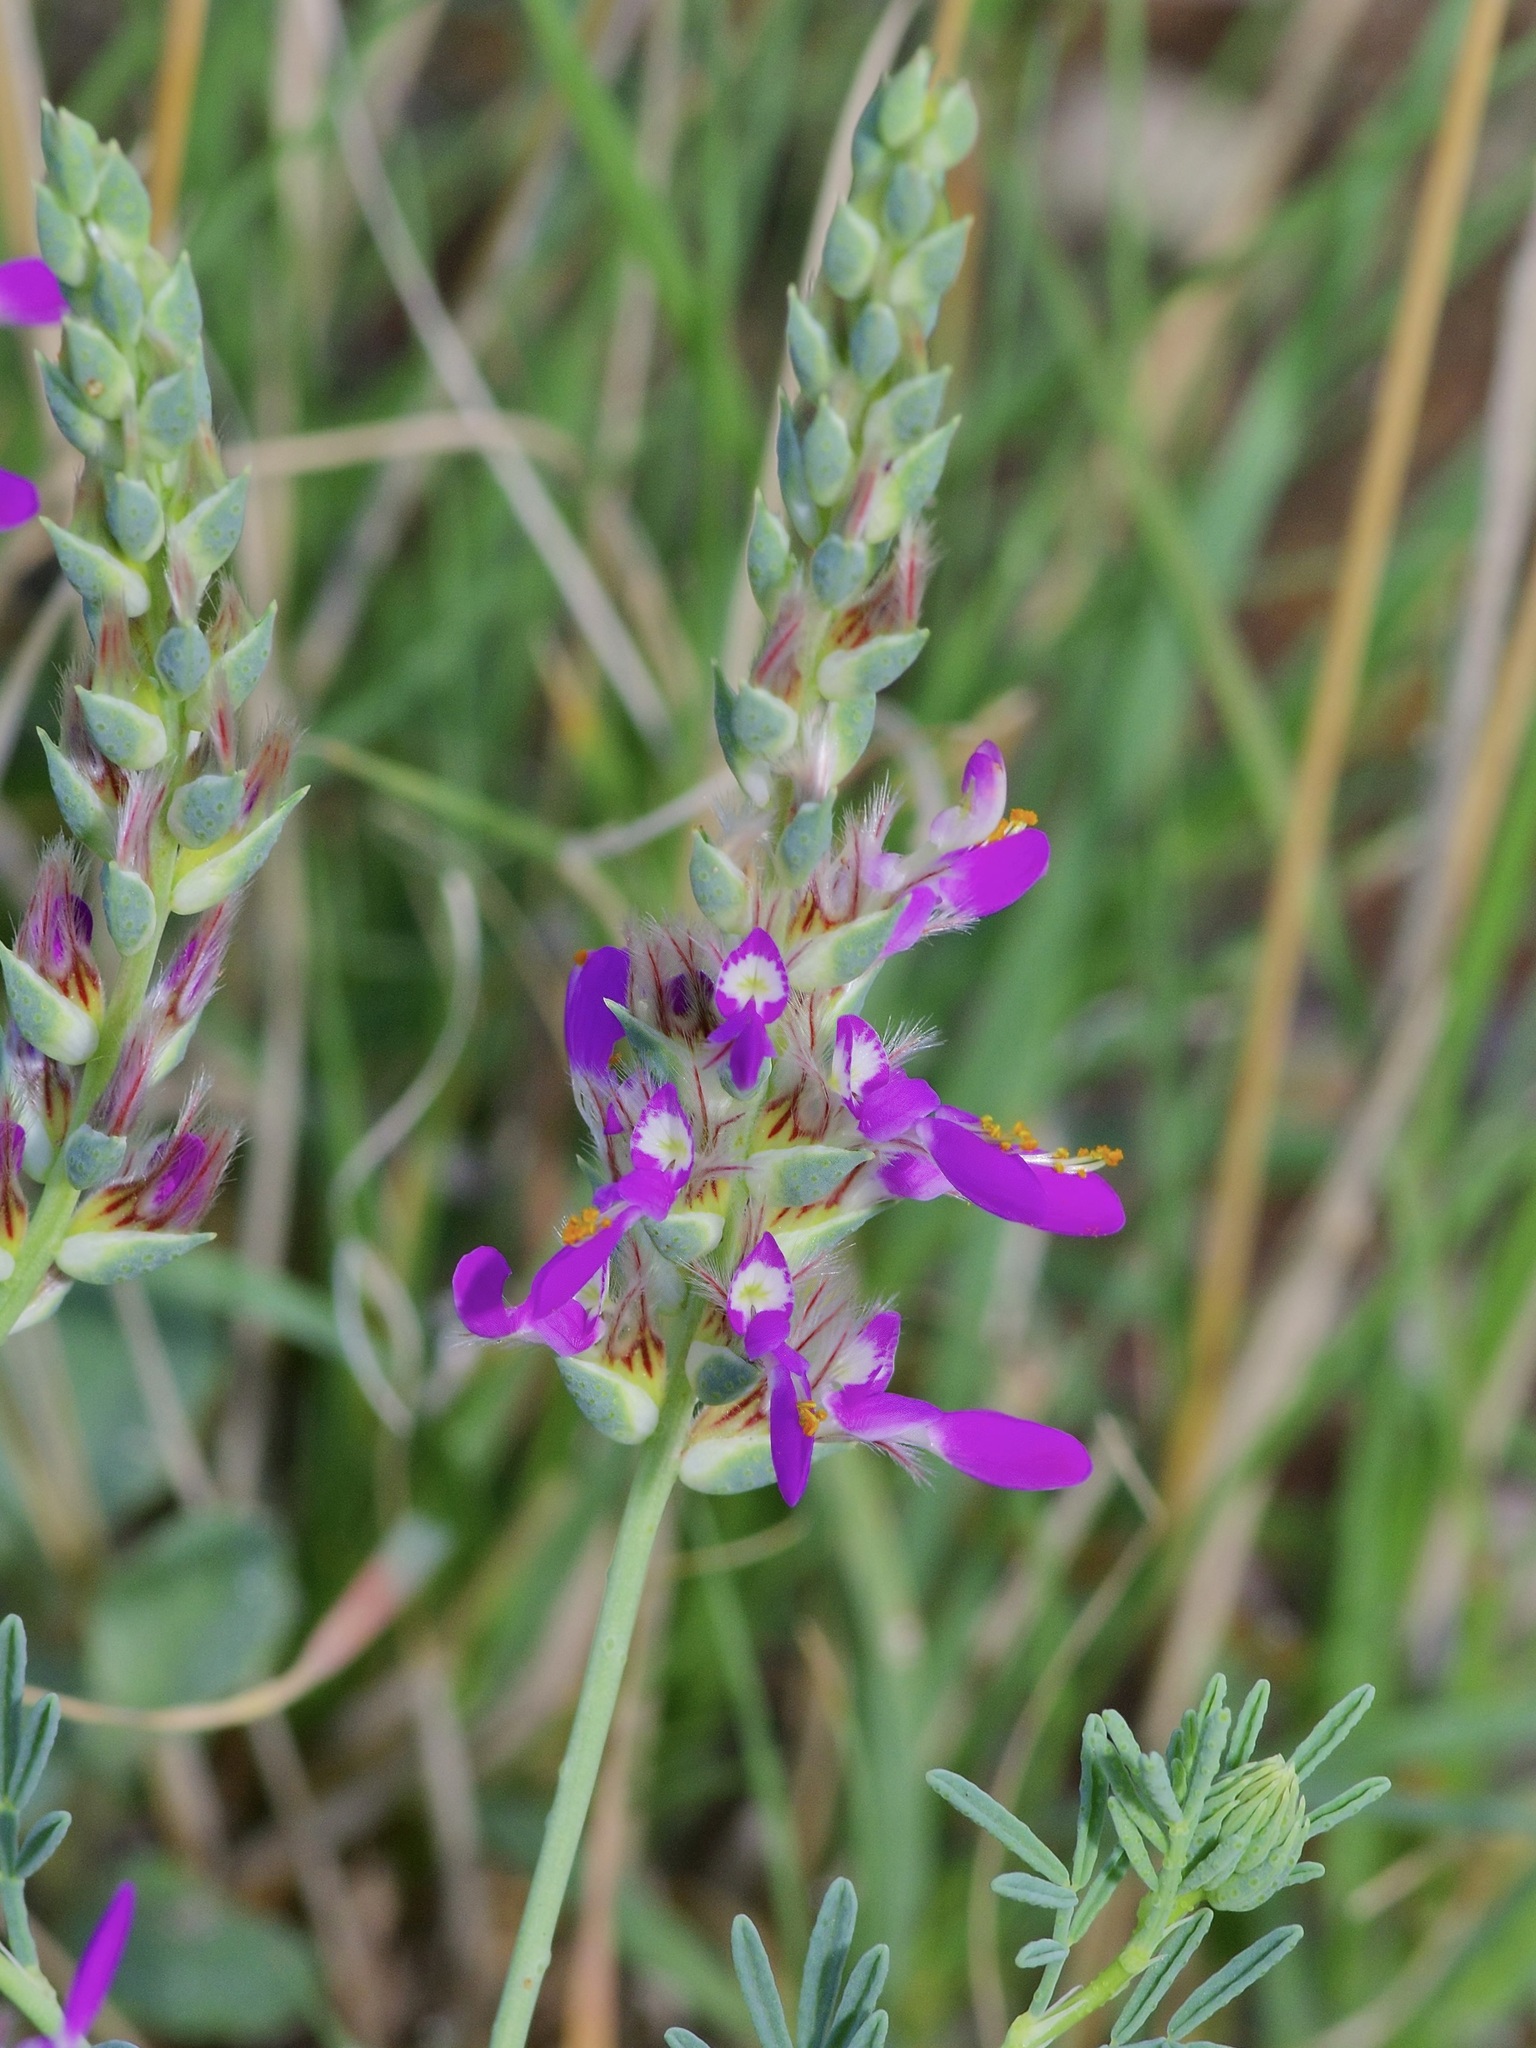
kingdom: Plantae
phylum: Tracheophyta
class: Magnoliopsida
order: Fabales
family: Fabaceae
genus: Dalea
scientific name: Dalea pogonathera
